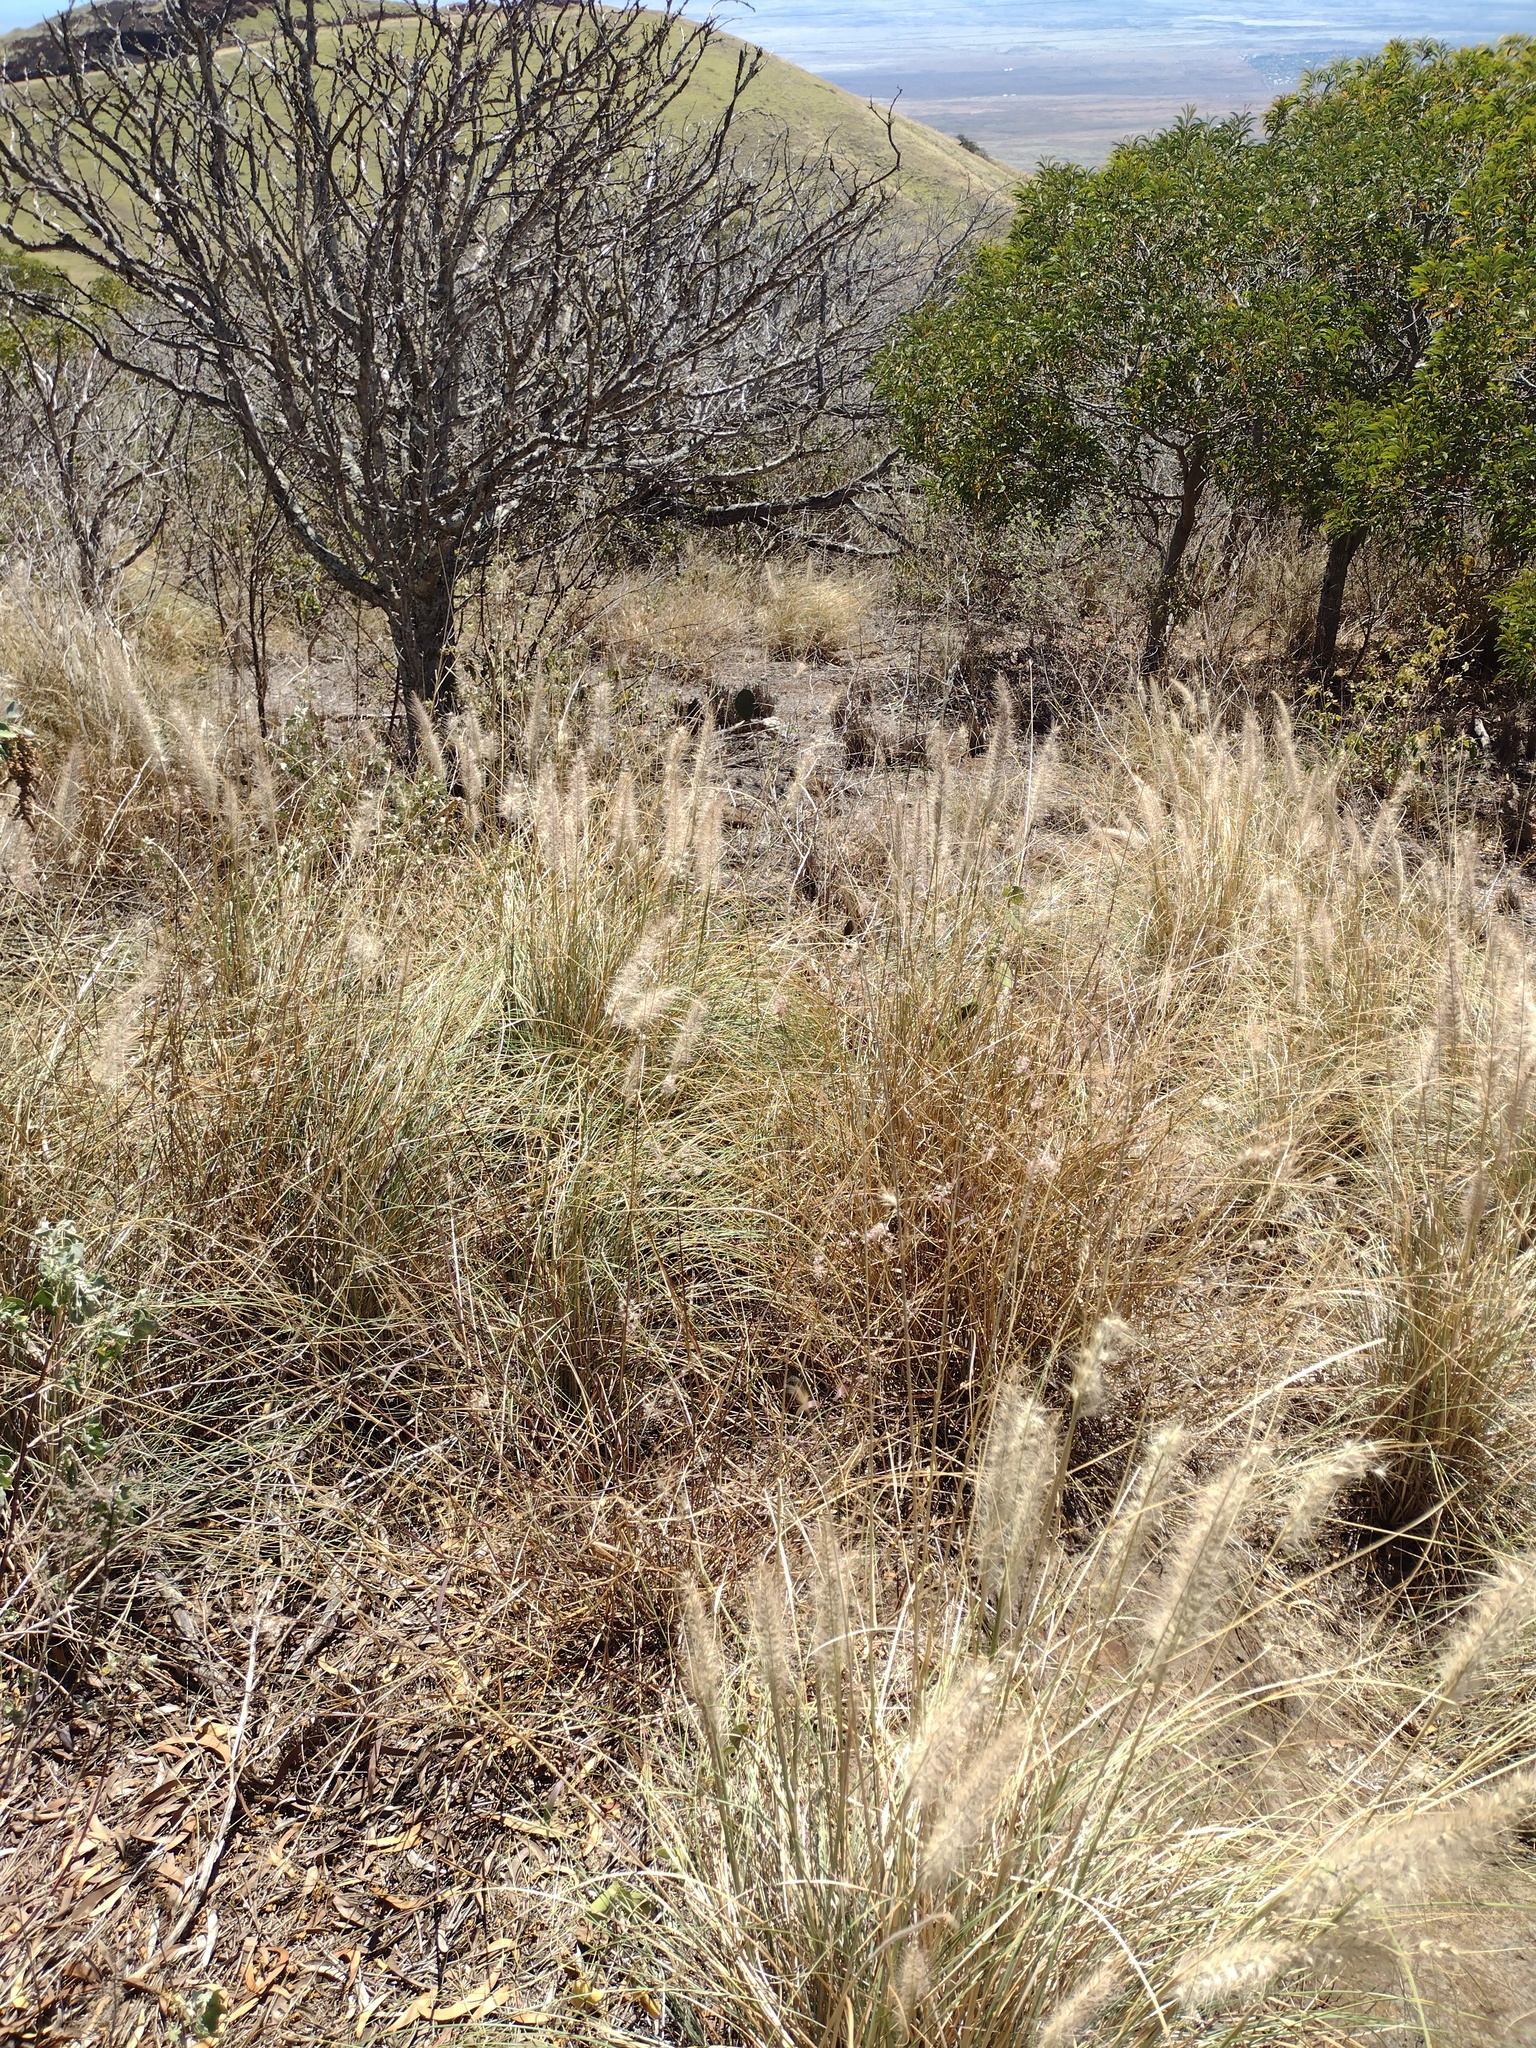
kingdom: Plantae
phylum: Tracheophyta
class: Liliopsida
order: Poales
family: Poaceae
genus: Cenchrus
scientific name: Cenchrus setaceus
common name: Crimson fountaingrass
